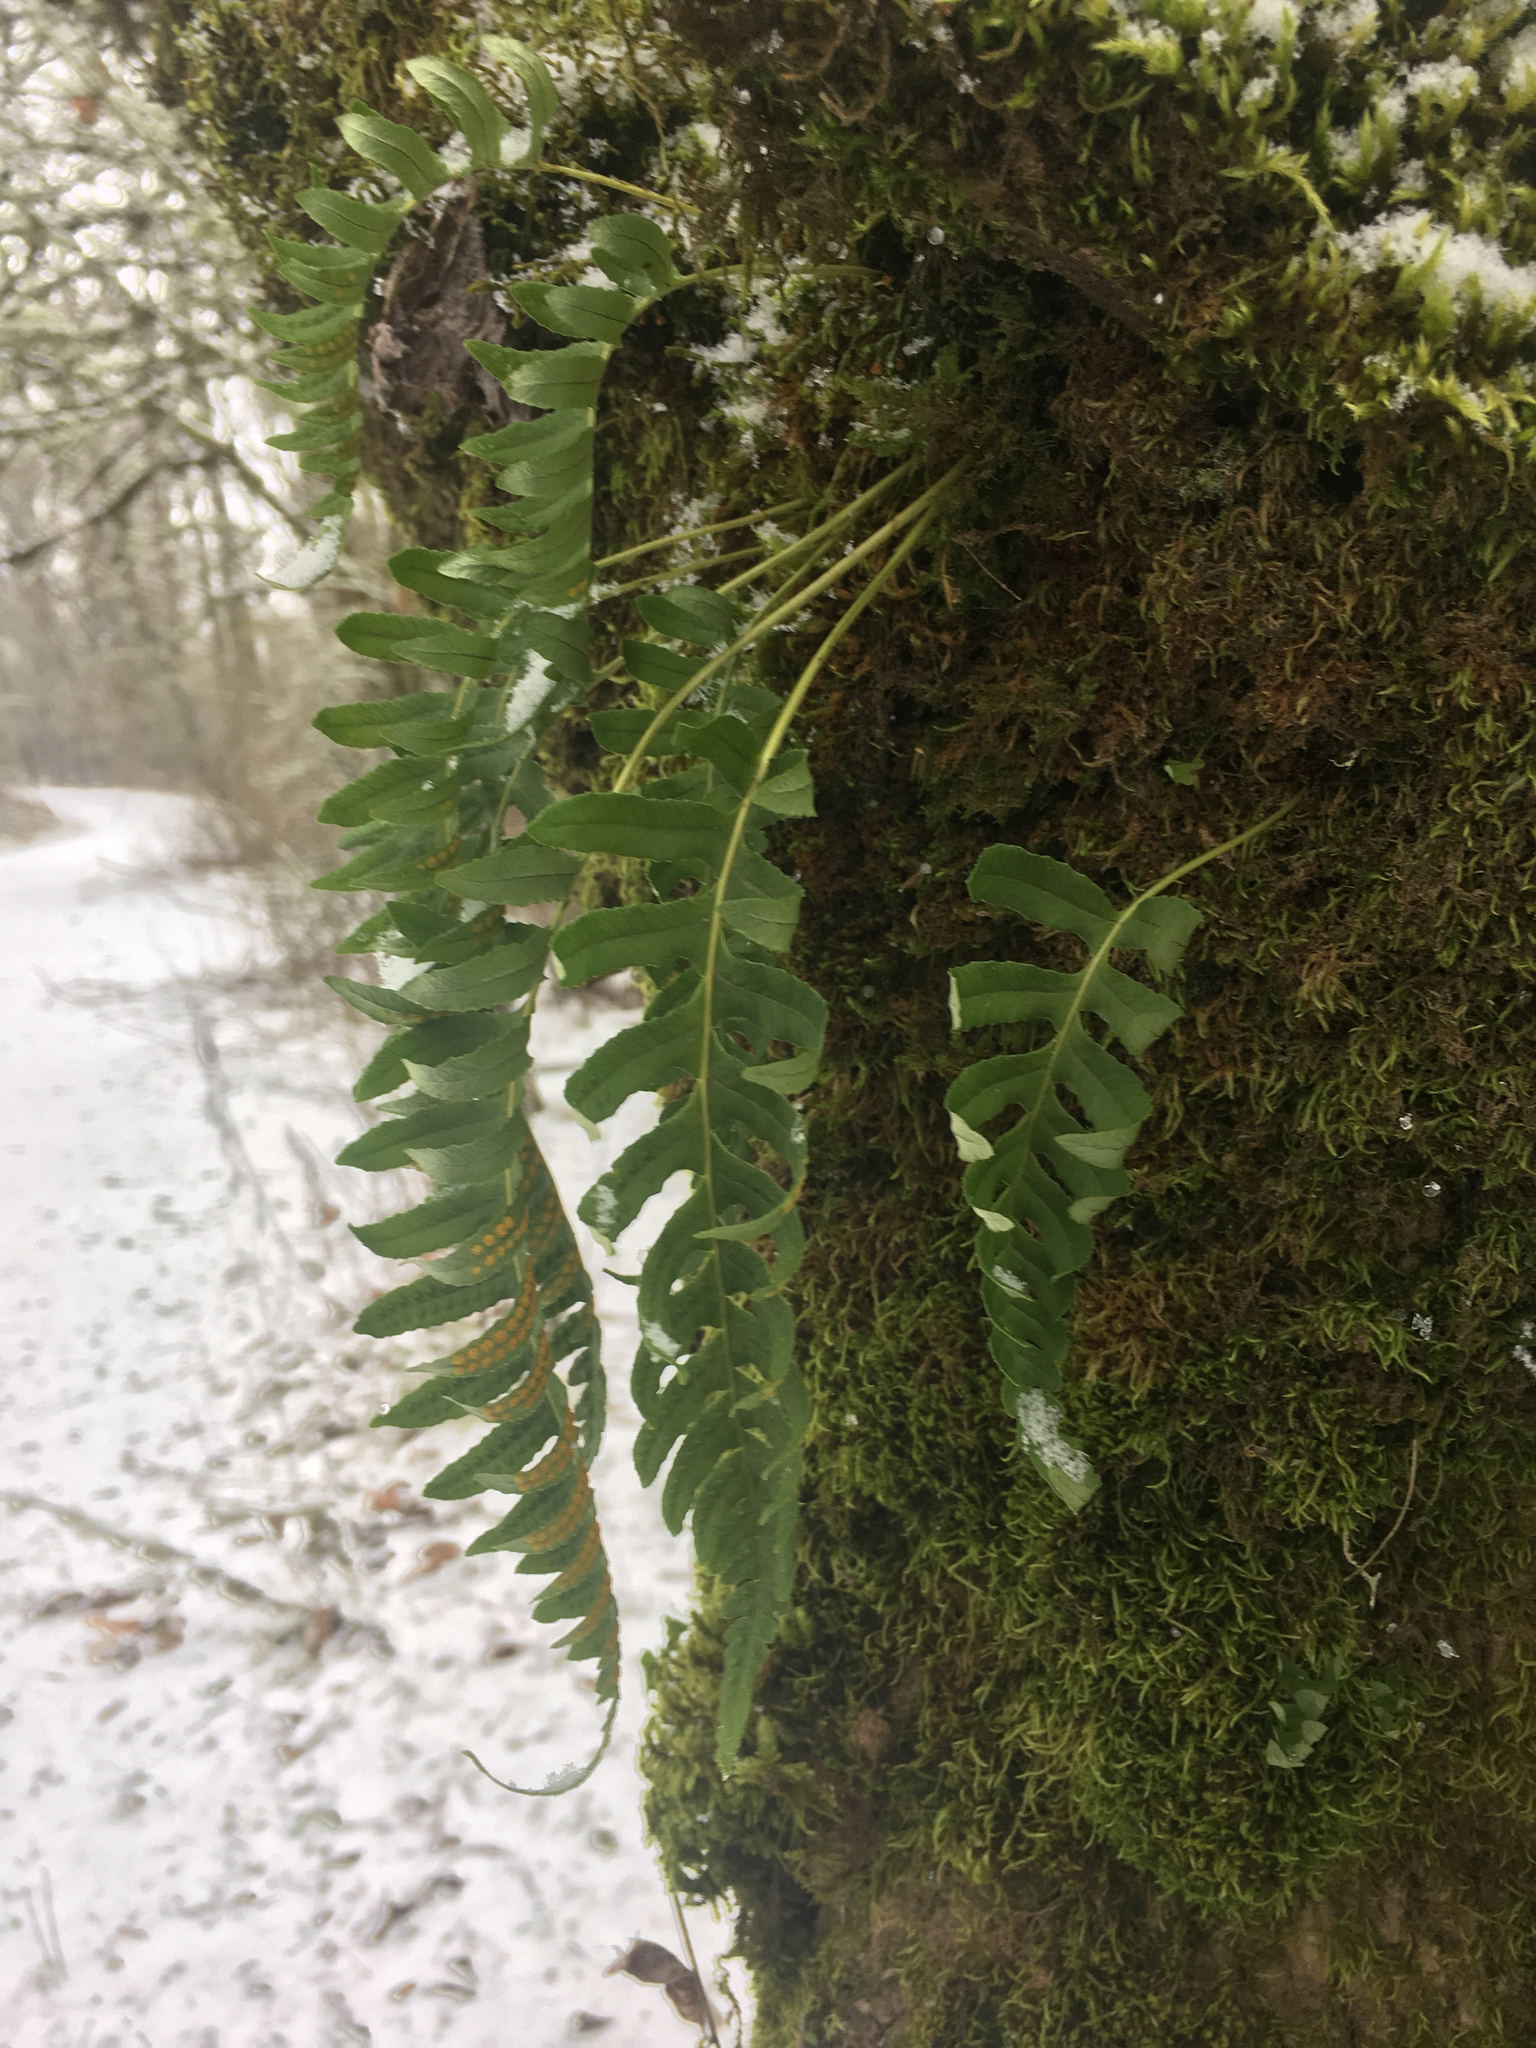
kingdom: Plantae
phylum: Tracheophyta
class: Polypodiopsida
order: Polypodiales
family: Polypodiaceae
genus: Polypodium
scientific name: Polypodium glycyrrhiza
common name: Licorice fern
